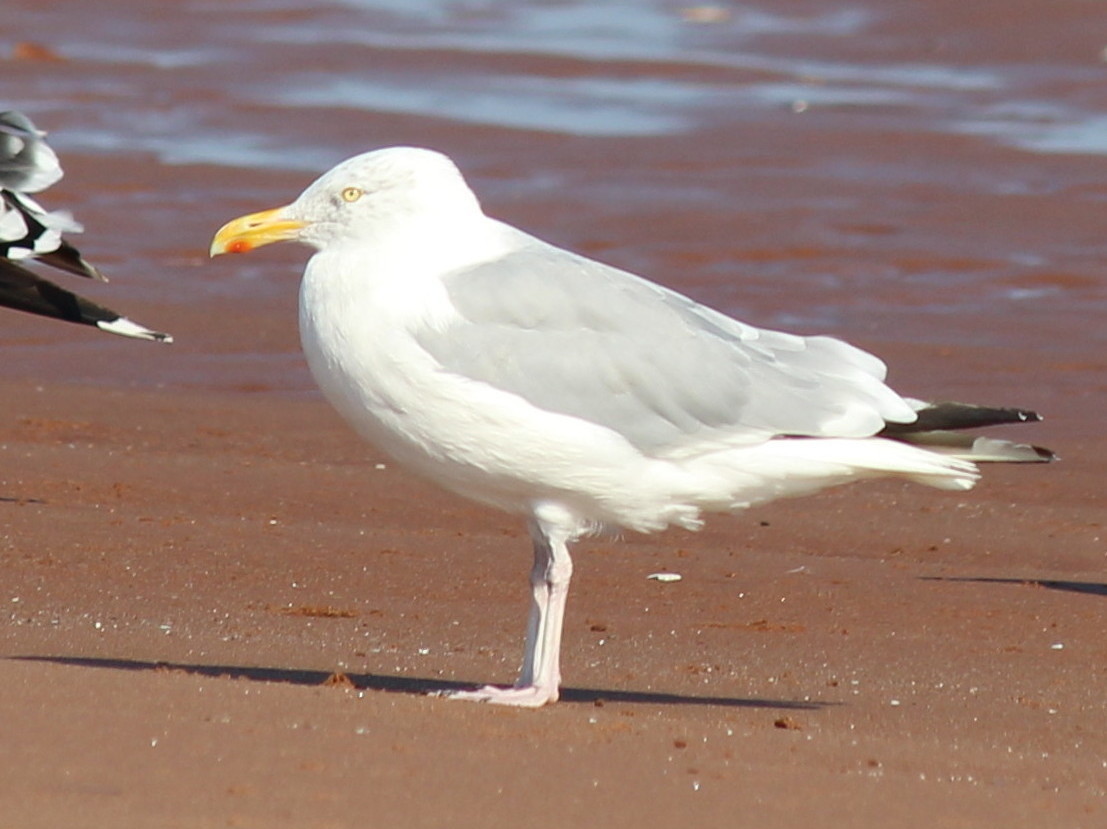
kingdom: Animalia
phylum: Chordata
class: Aves
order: Charadriiformes
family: Laridae
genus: Larus
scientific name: Larus argentatus
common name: Herring gull
